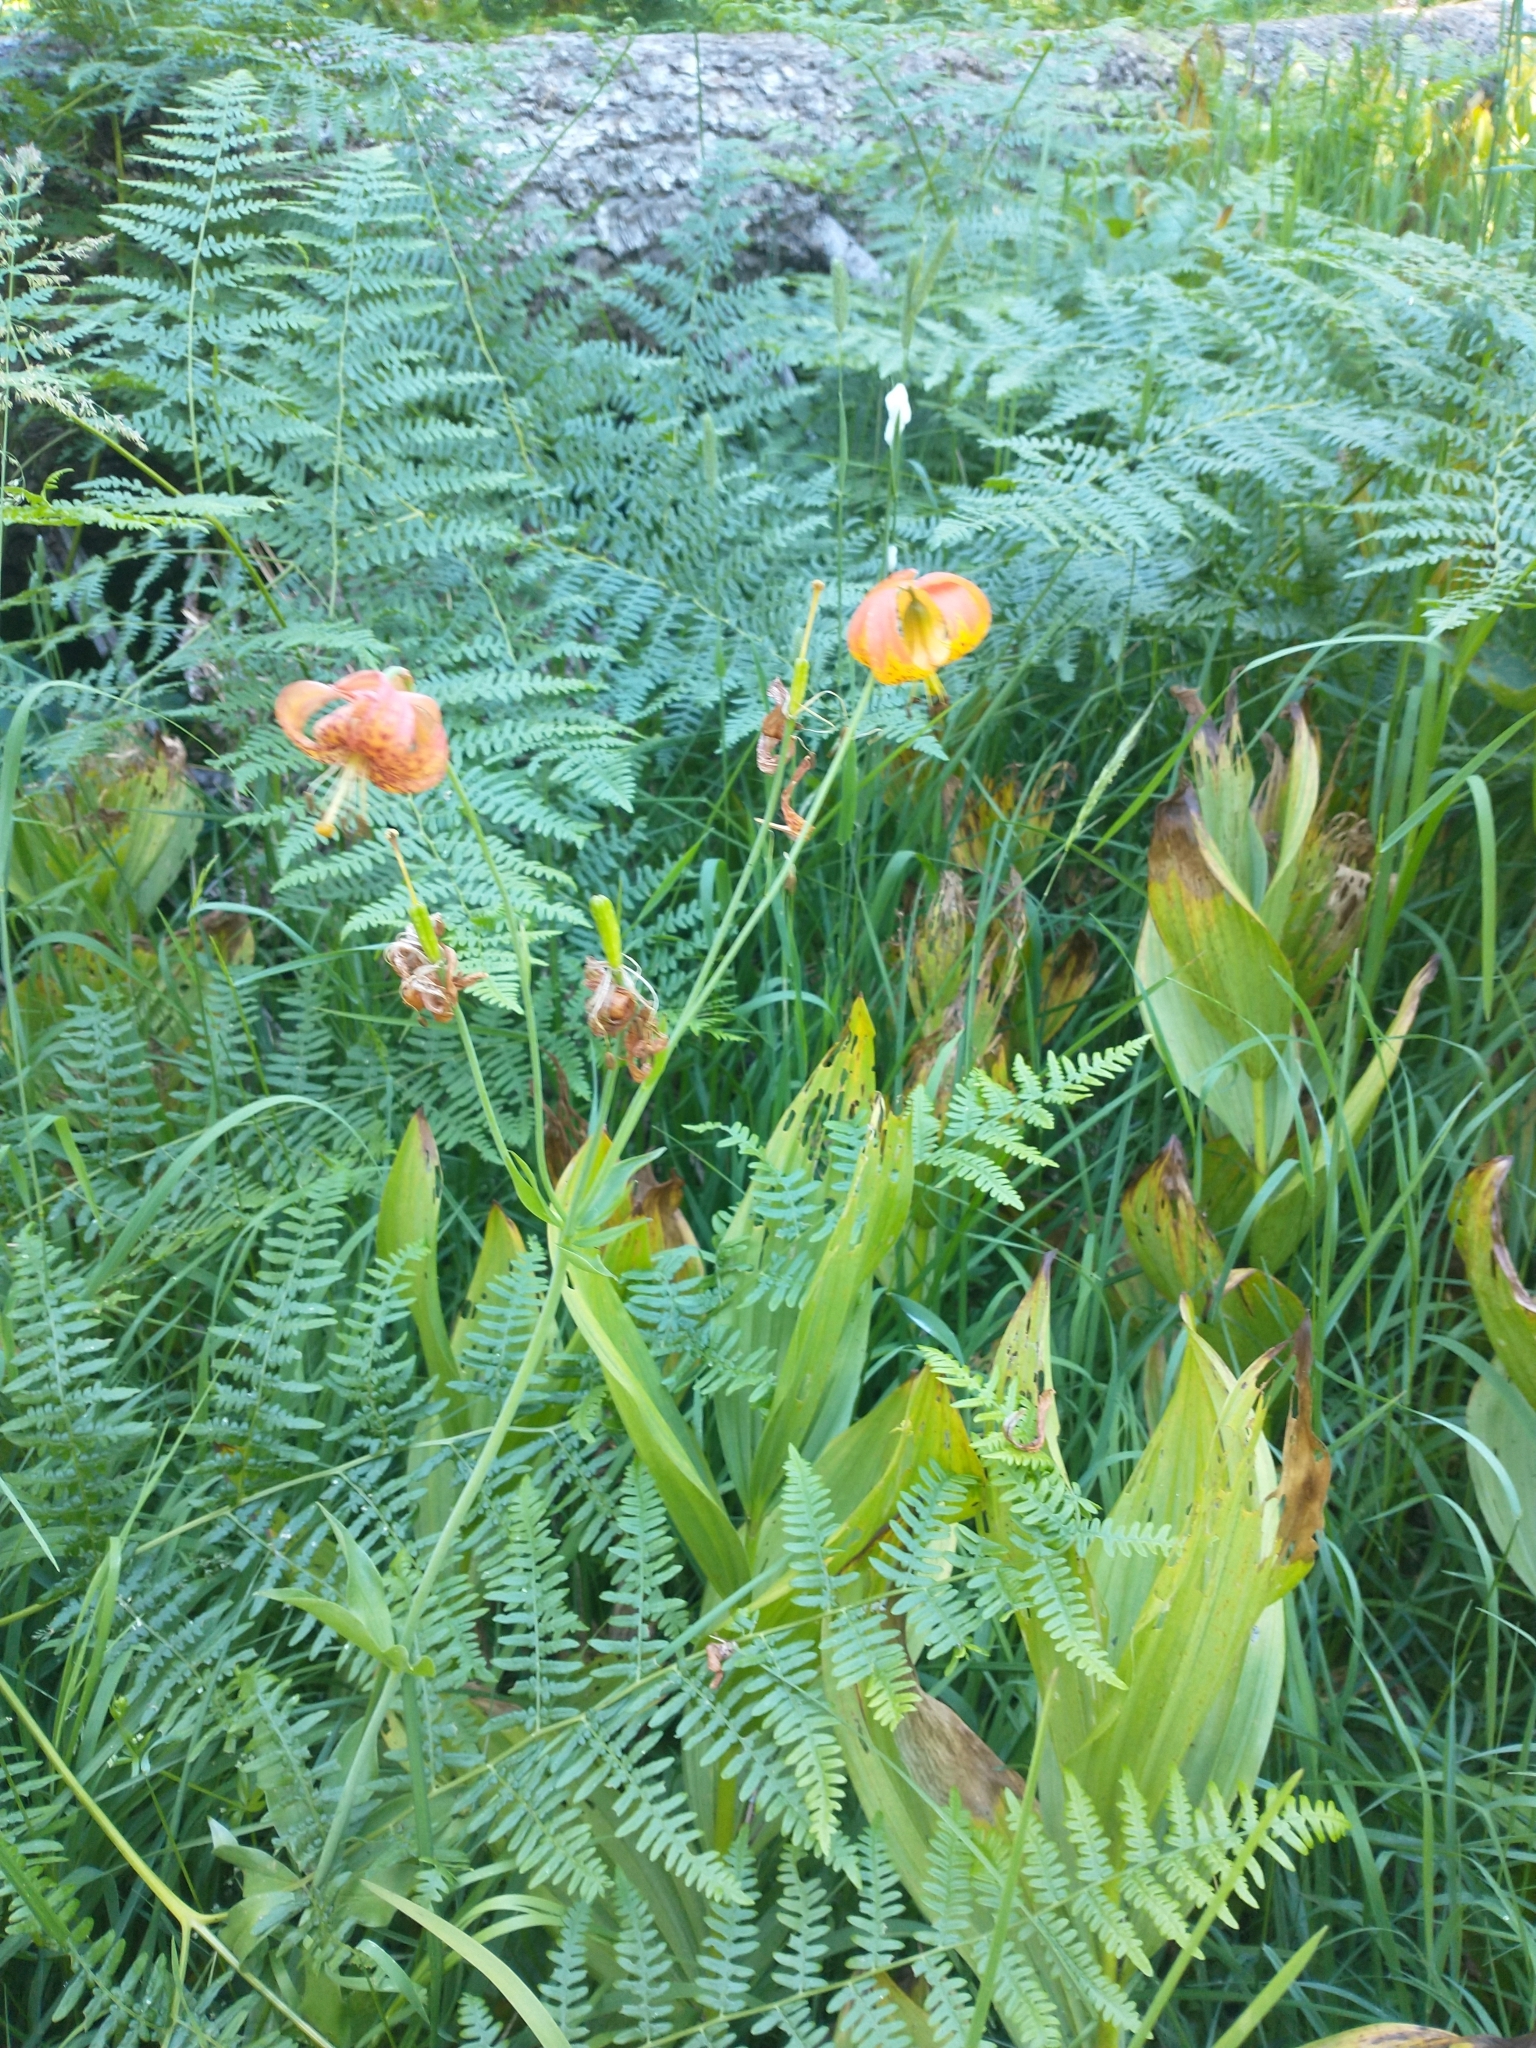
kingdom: Plantae
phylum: Tracheophyta
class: Liliopsida
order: Liliales
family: Liliaceae
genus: Lilium
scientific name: Lilium pardalinum
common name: Panther lily
